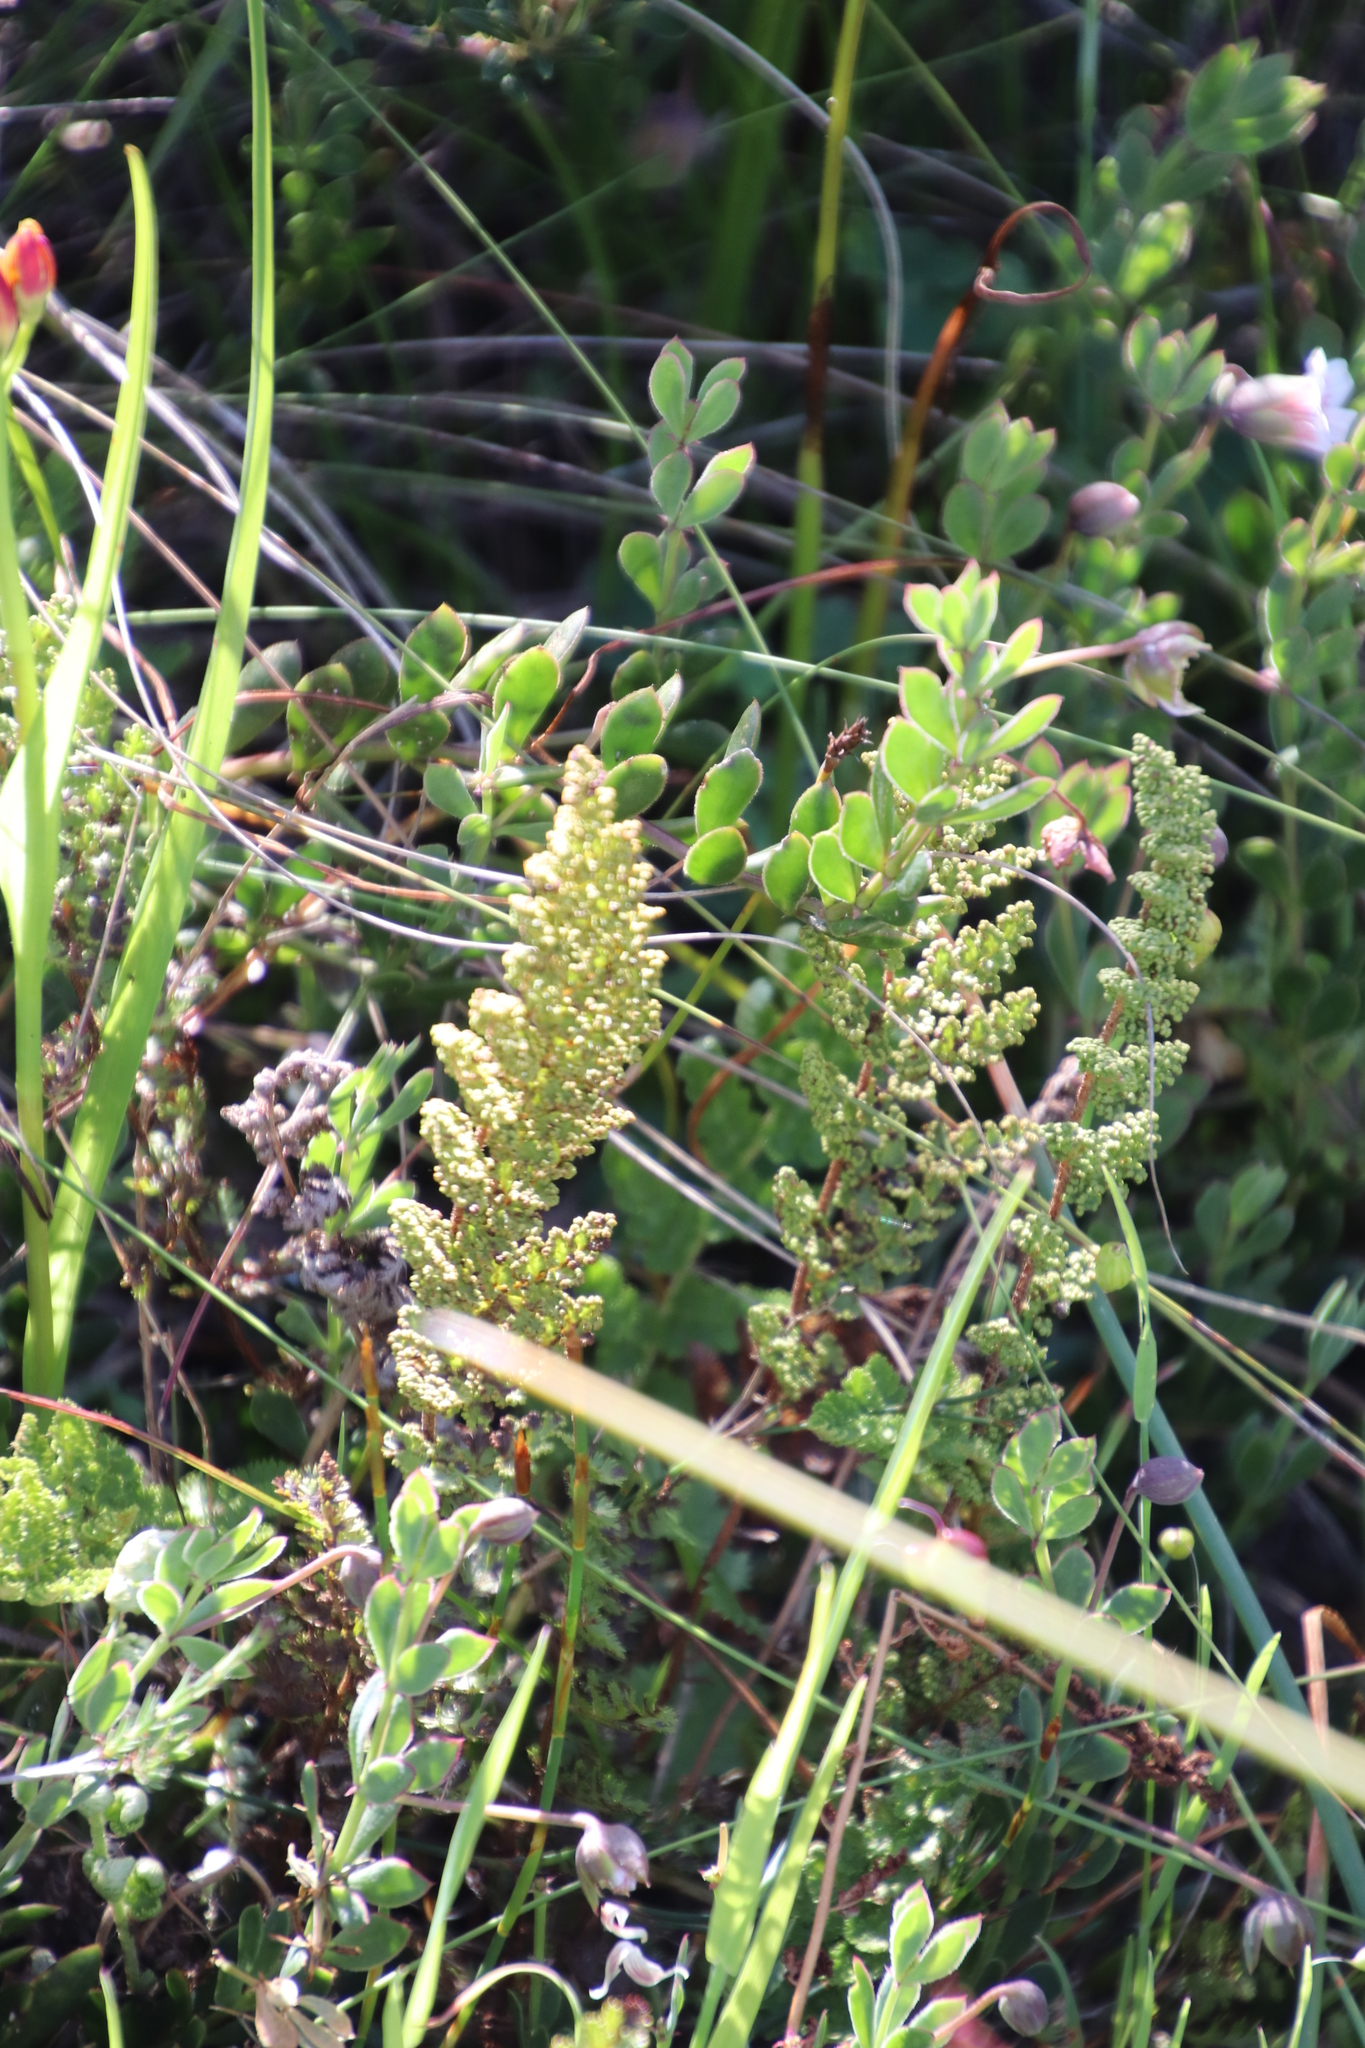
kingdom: Plantae
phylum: Tracheophyta
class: Polypodiopsida
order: Schizaeales
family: Anemiaceae
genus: Anemia
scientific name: Anemia caffrorum
